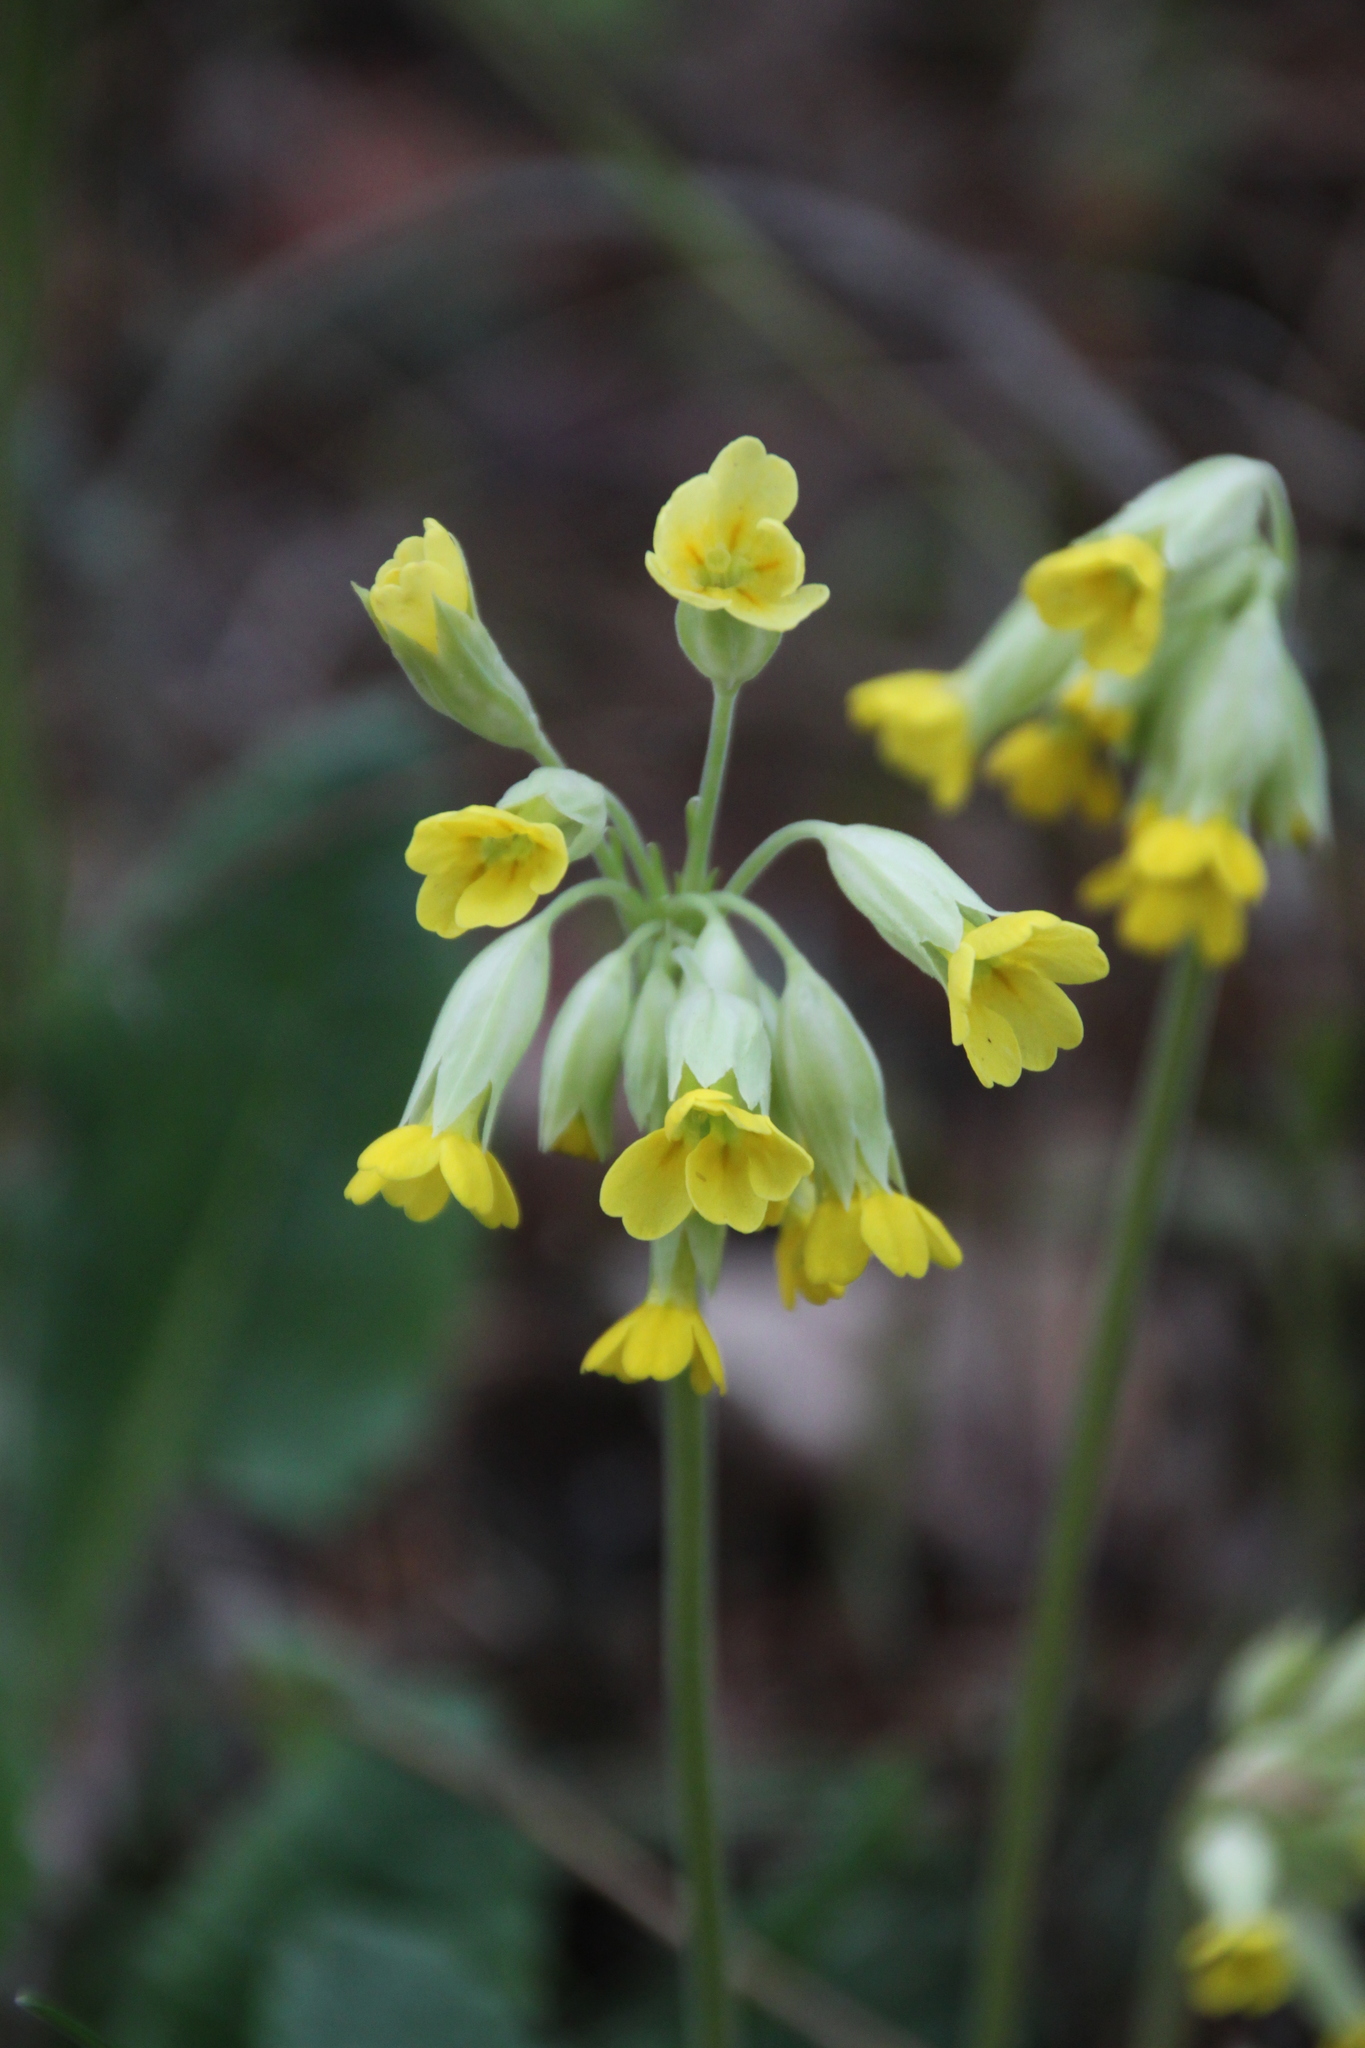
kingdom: Plantae
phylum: Tracheophyta
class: Magnoliopsida
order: Ericales
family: Primulaceae
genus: Primula
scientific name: Primula veris
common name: Cowslip
